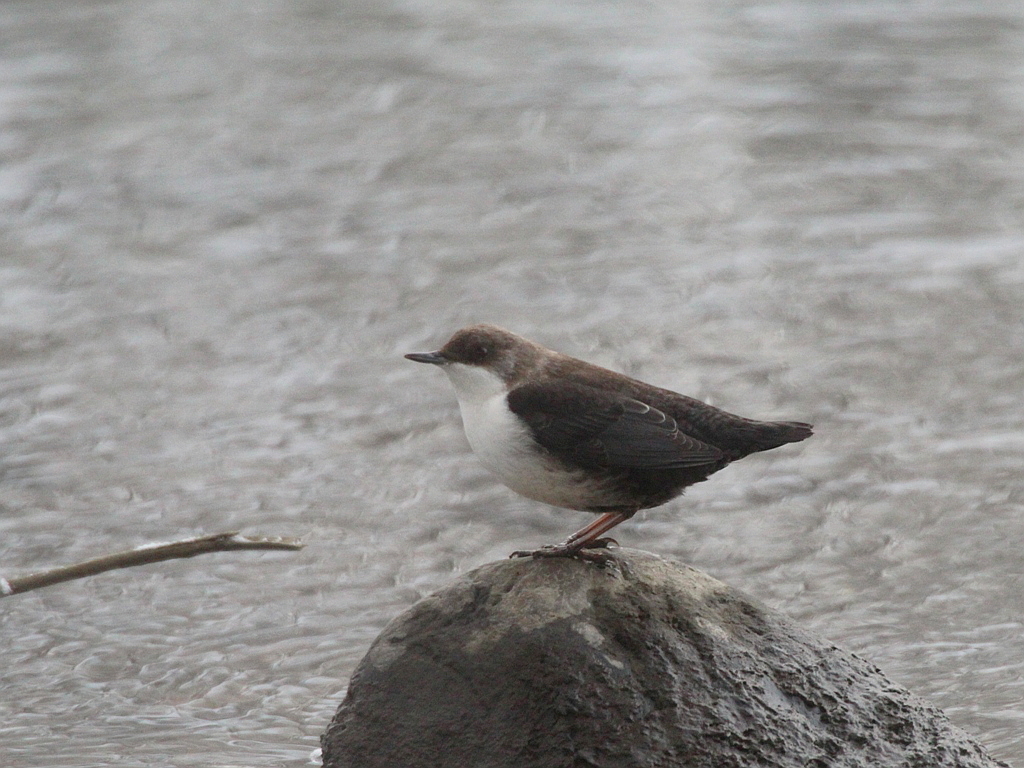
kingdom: Animalia
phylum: Chordata
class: Aves
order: Passeriformes
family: Cinclidae
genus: Cinclus
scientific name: Cinclus cinclus
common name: White-throated dipper
